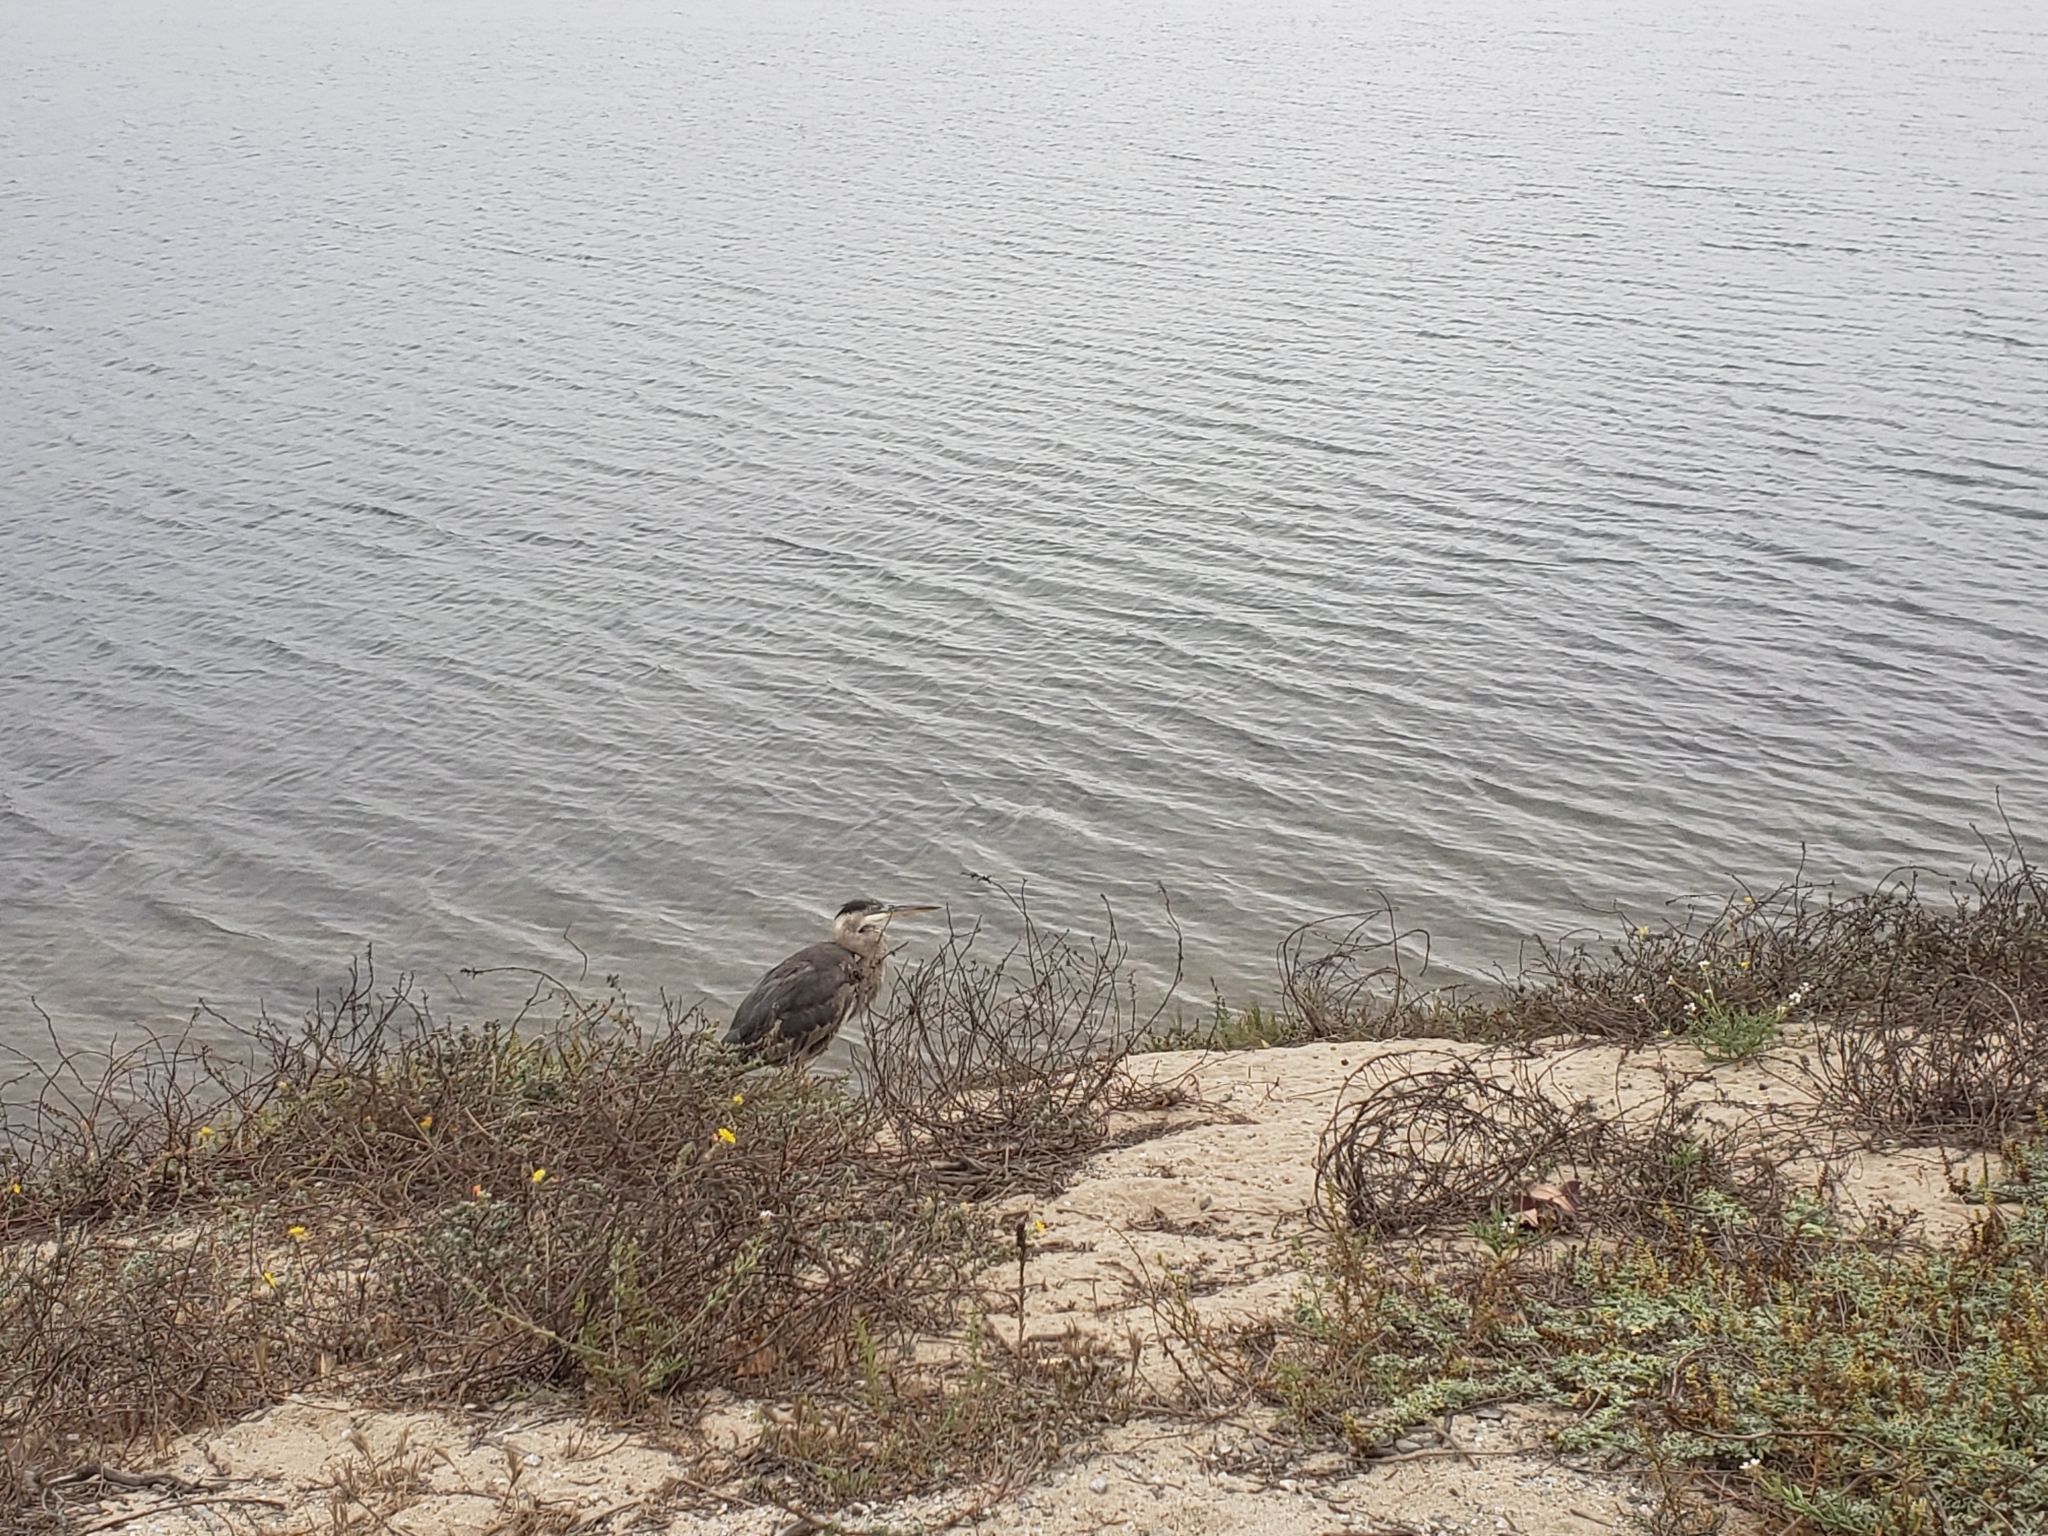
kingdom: Animalia
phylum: Chordata
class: Aves
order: Pelecaniformes
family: Ardeidae
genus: Ardea
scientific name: Ardea herodias
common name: Great blue heron
